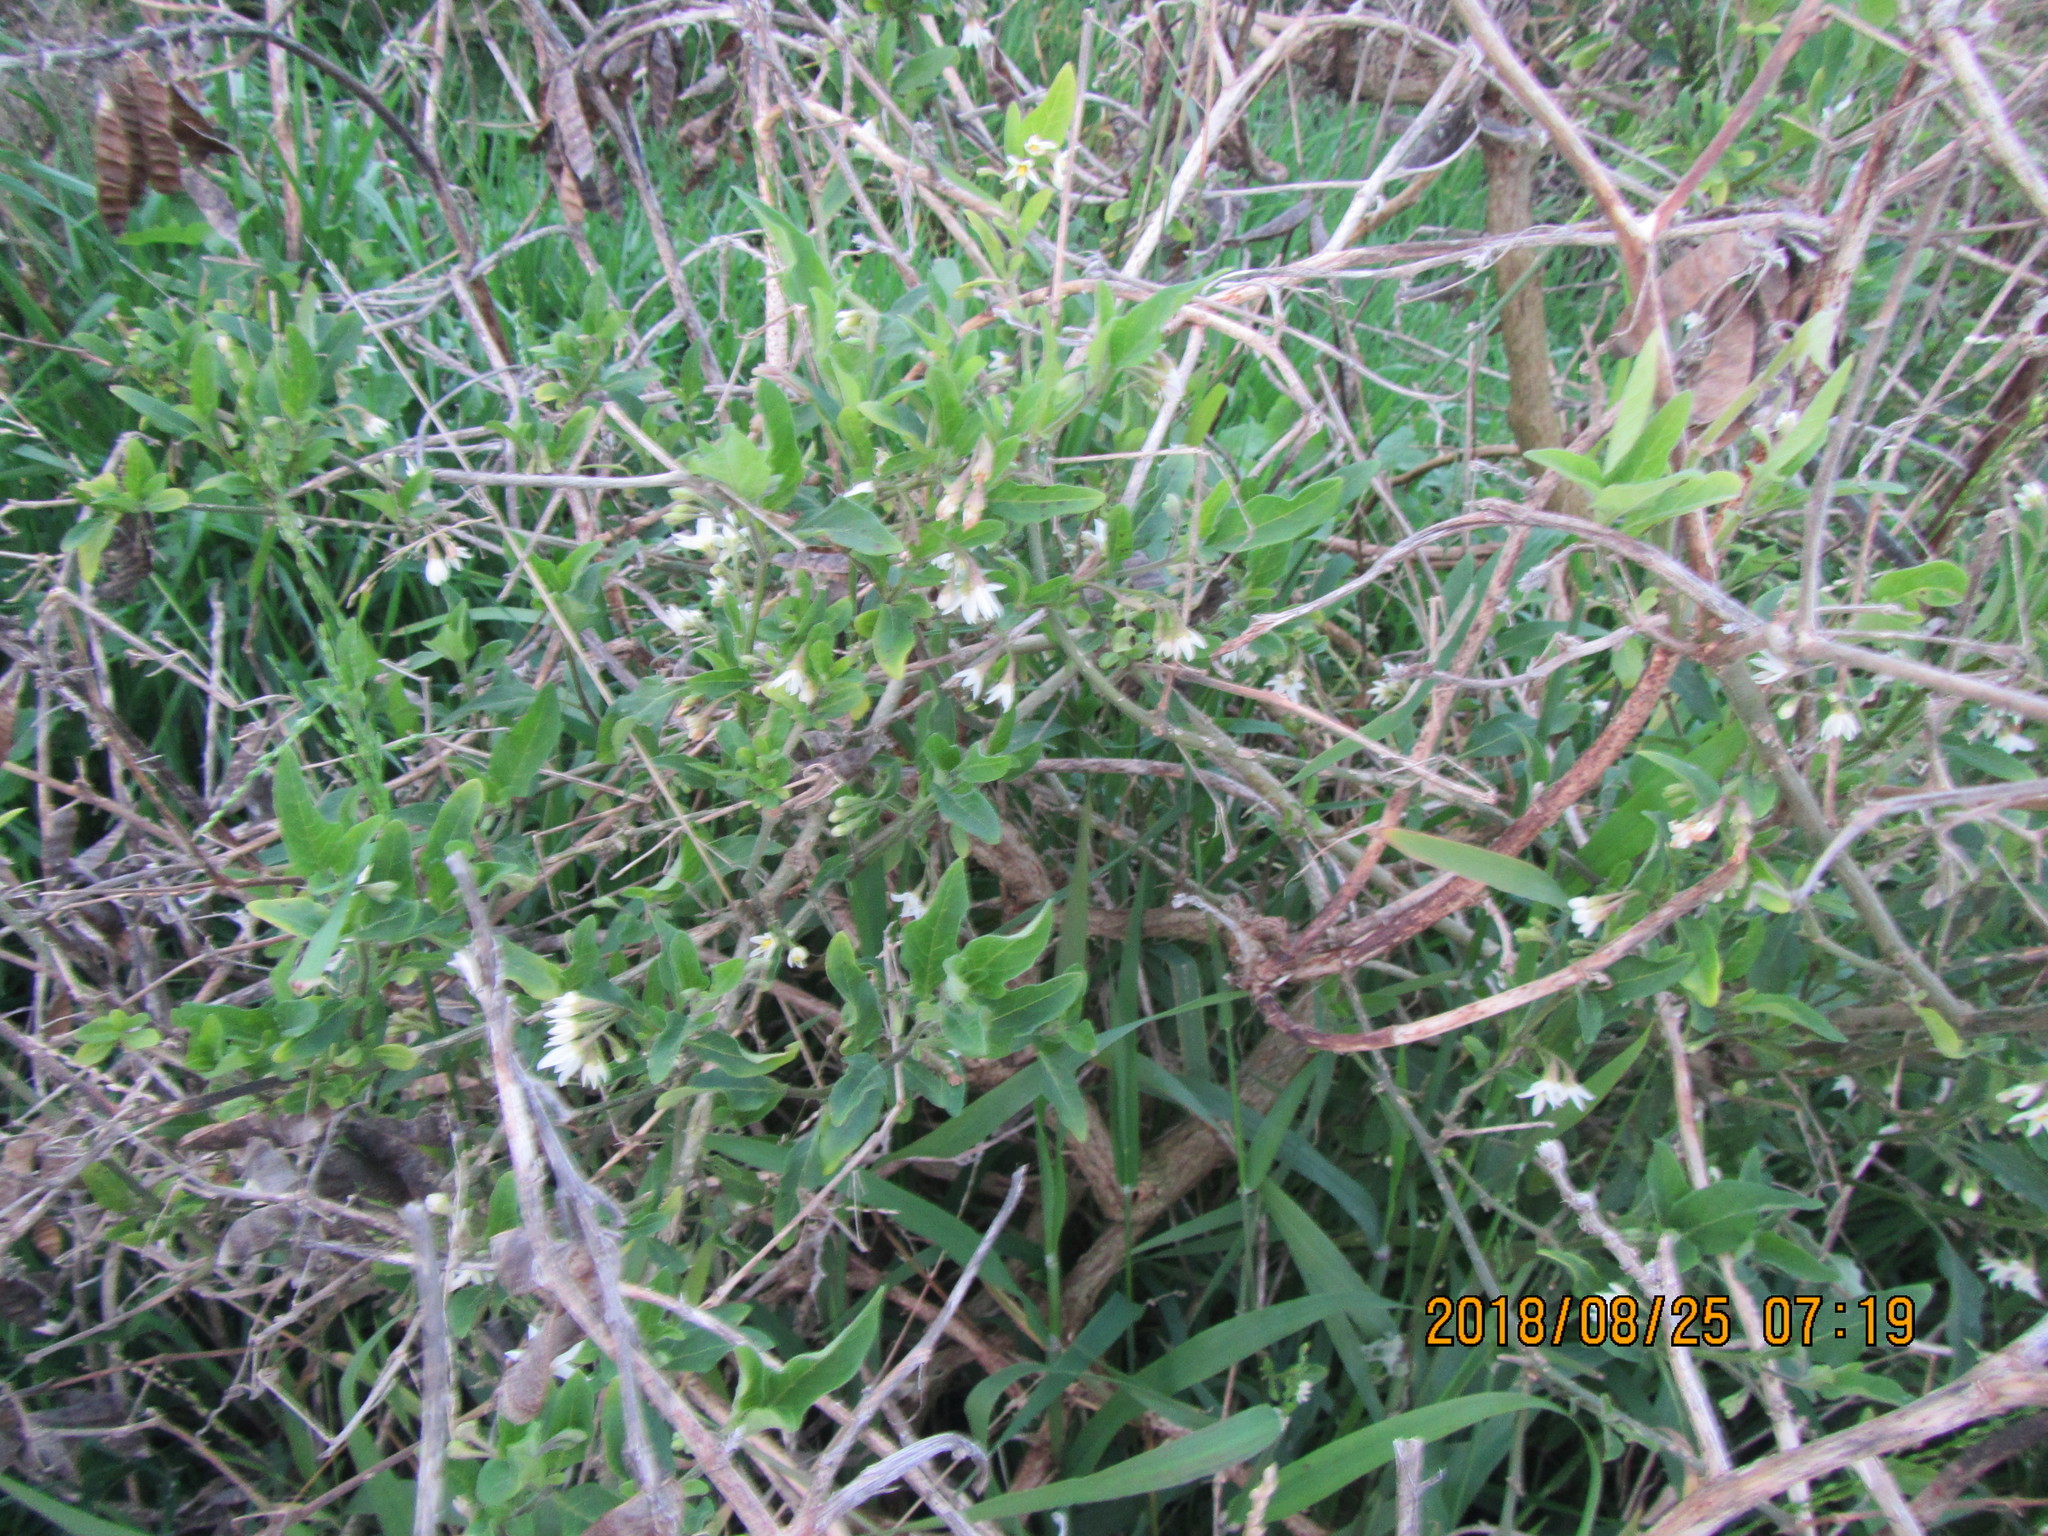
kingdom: Plantae
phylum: Tracheophyta
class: Magnoliopsida
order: Solanales
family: Solanaceae
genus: Solanum
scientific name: Solanum chenopodioides
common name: Tall nightshade
